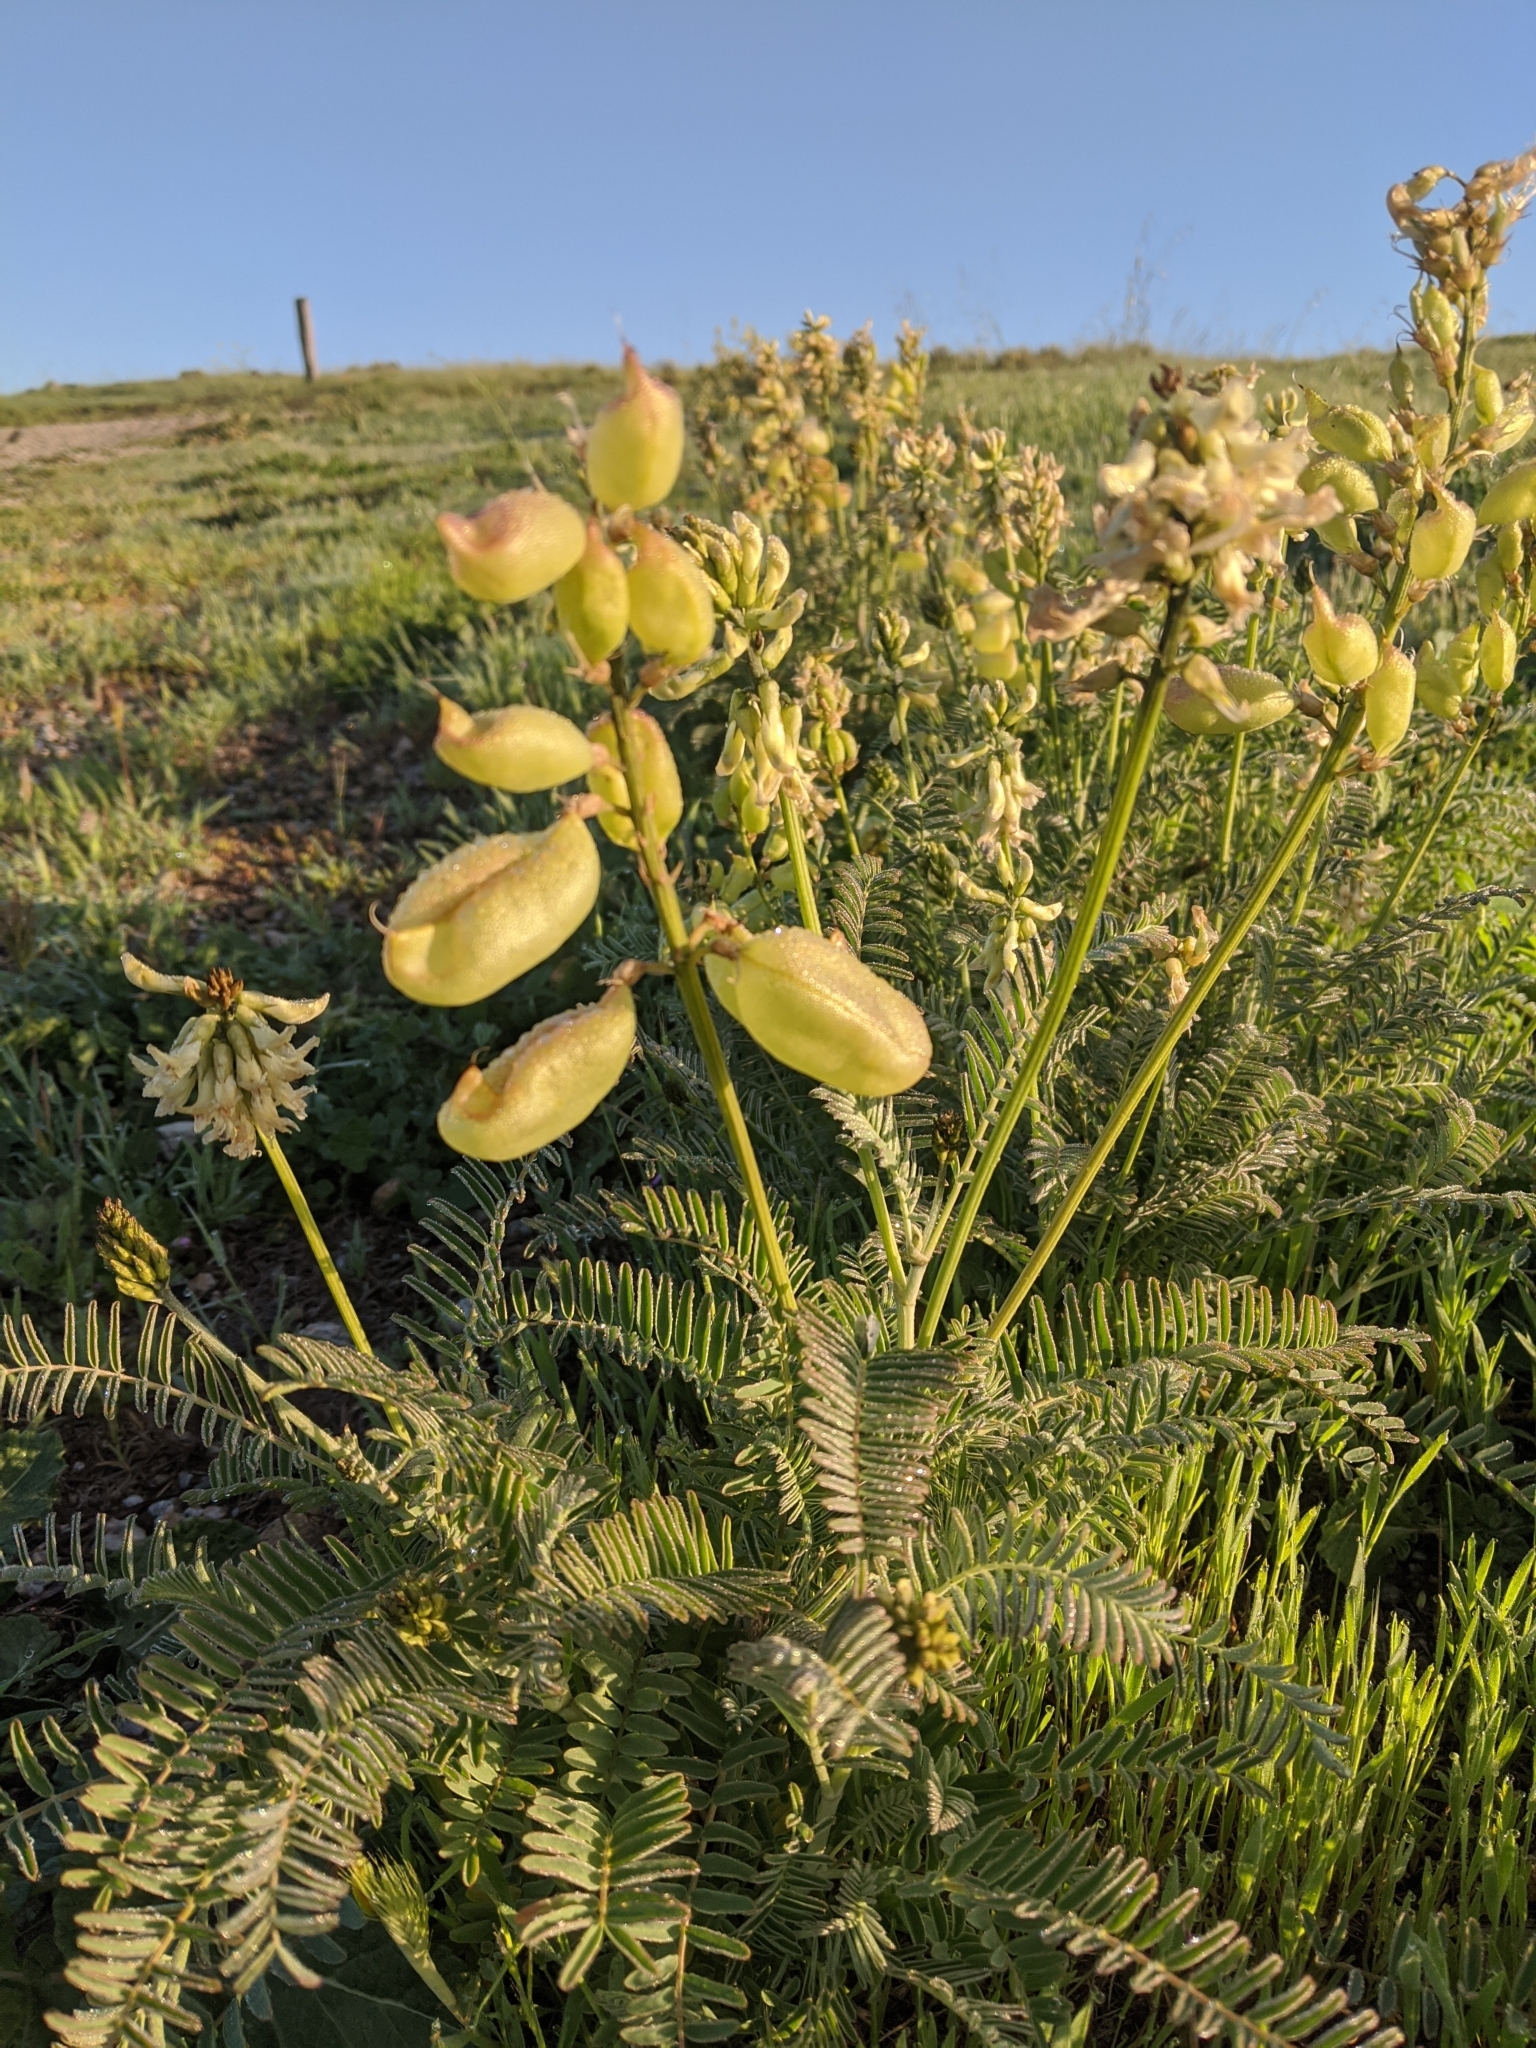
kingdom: Plantae
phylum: Tracheophyta
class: Magnoliopsida
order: Fabales
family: Fabaceae
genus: Astragalus
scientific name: Astragalus curtipes
